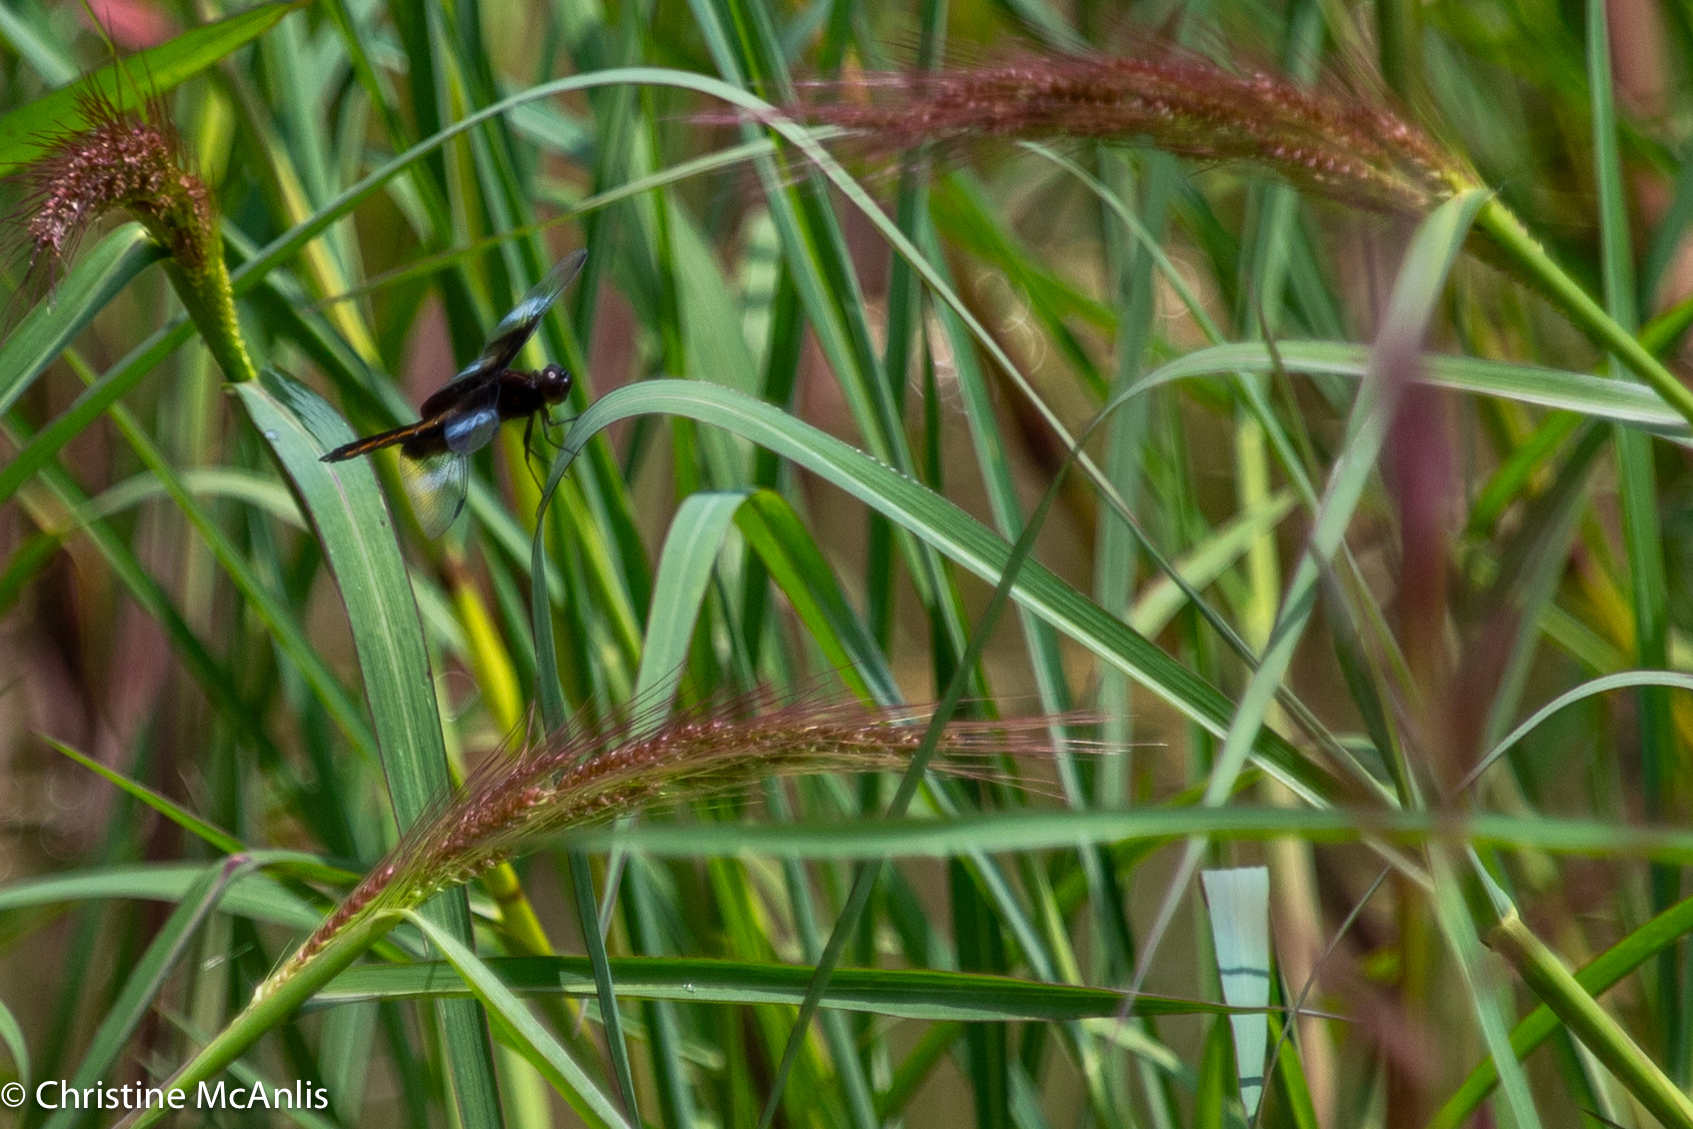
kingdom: Animalia
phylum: Arthropoda
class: Insecta
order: Odonata
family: Libellulidae
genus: Libellula
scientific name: Libellula luctuosa
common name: Widow skimmer
